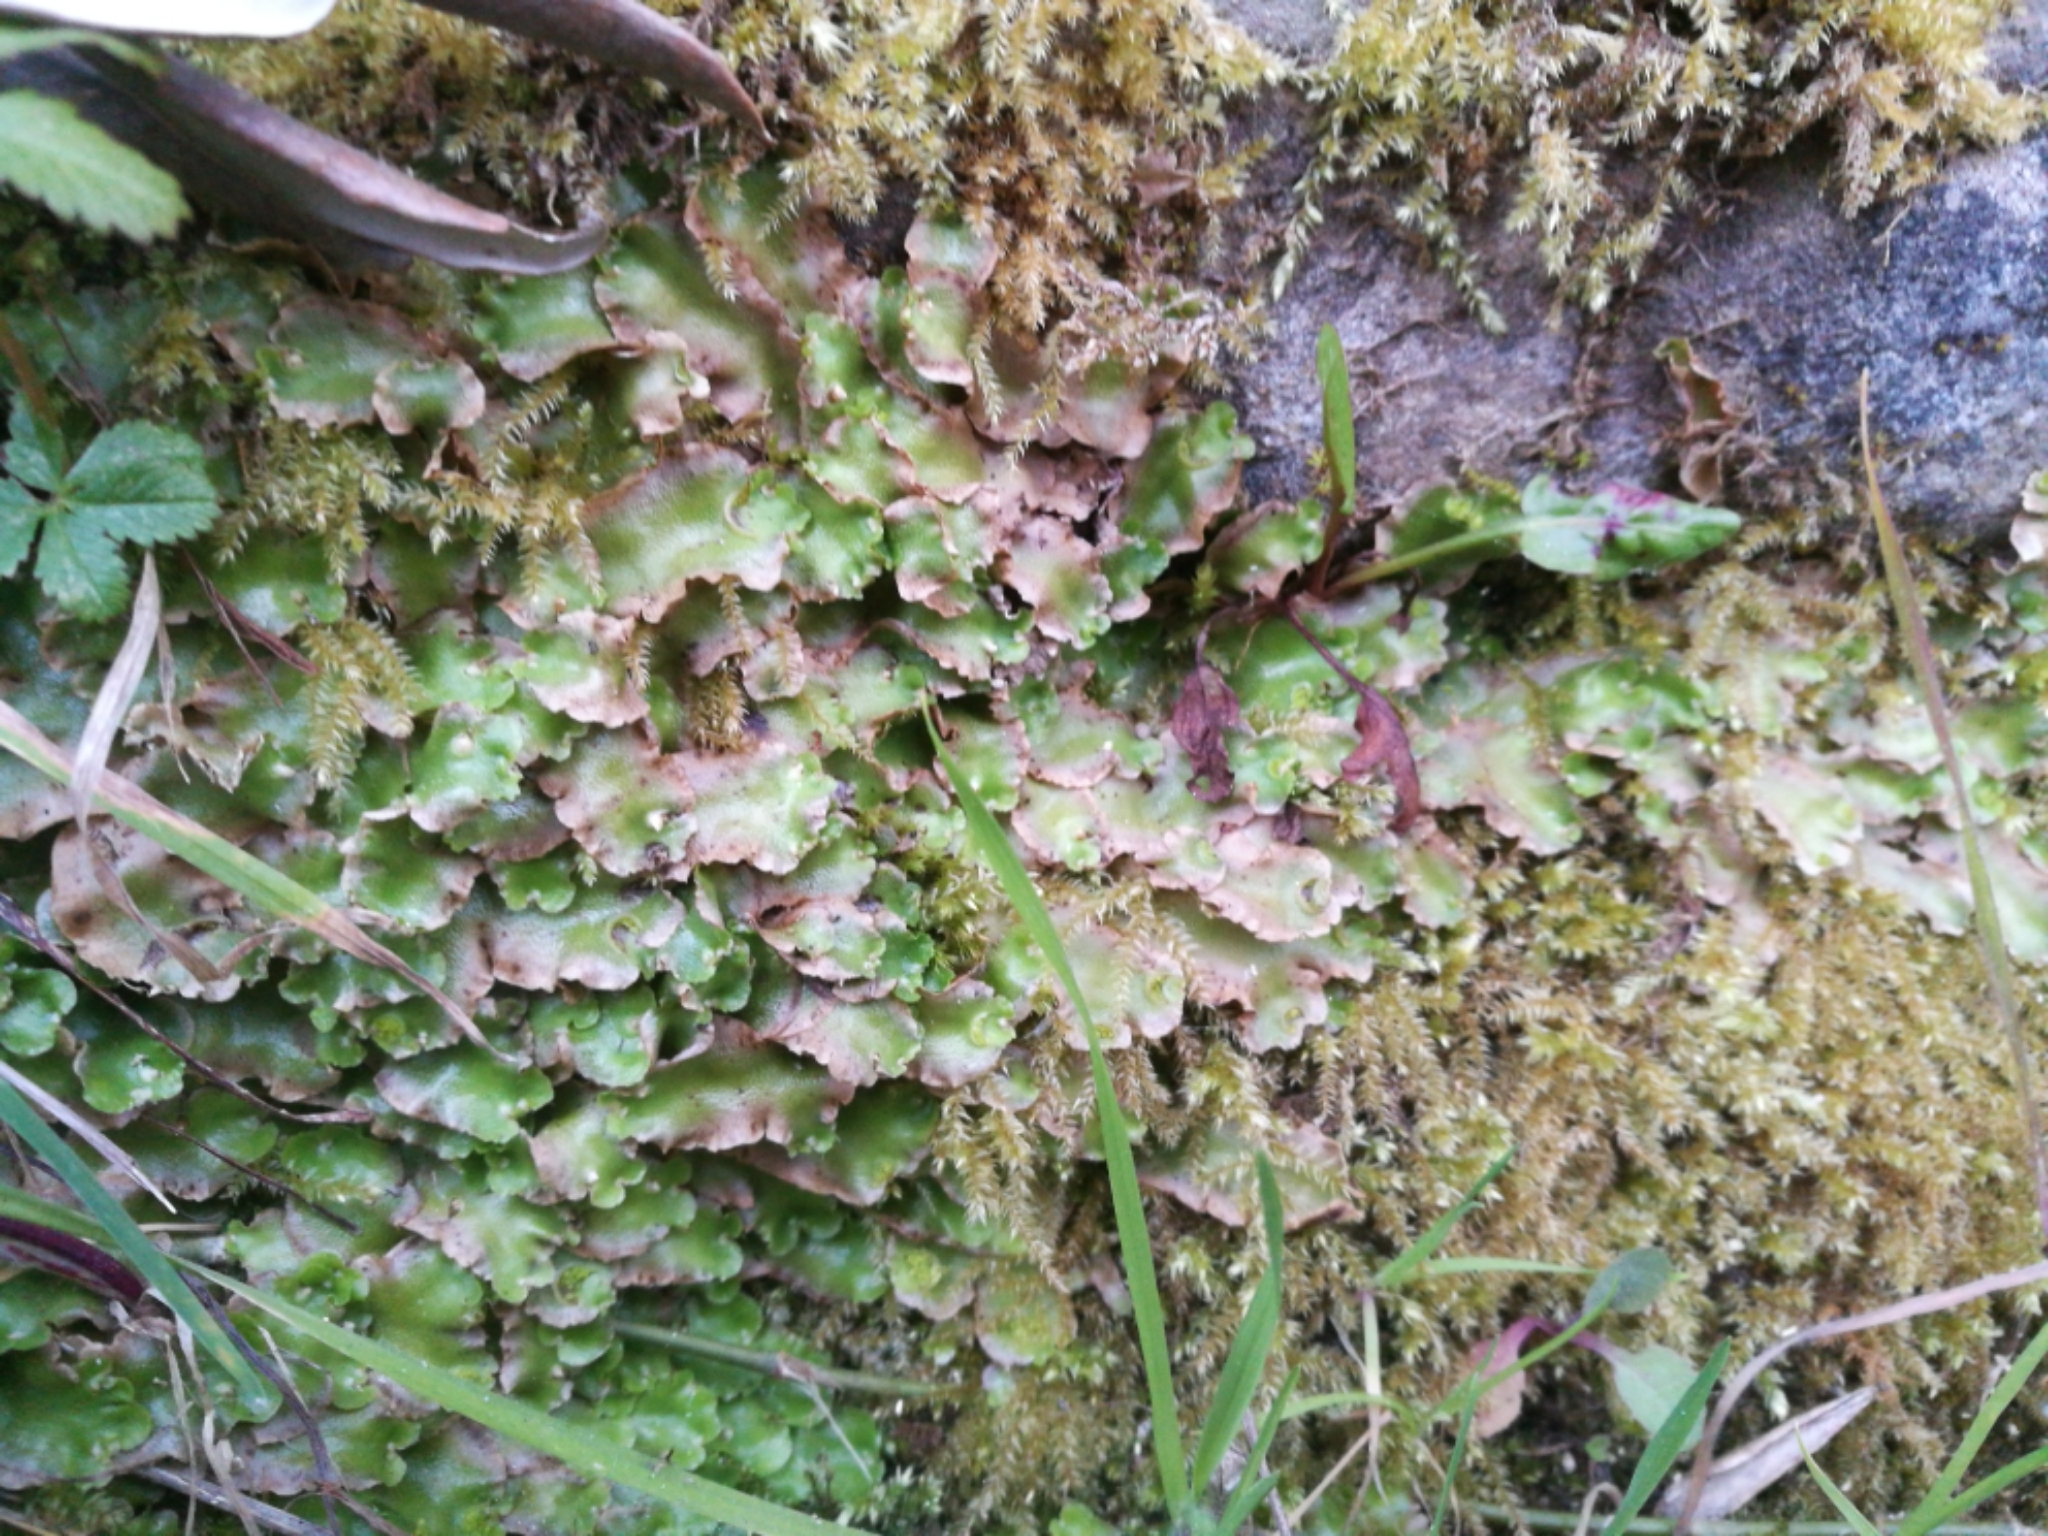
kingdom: Plantae
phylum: Marchantiophyta
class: Marchantiopsida
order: Lunulariales
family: Lunulariaceae
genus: Lunularia
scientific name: Lunularia cruciata
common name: Crescent-cup liverwort
